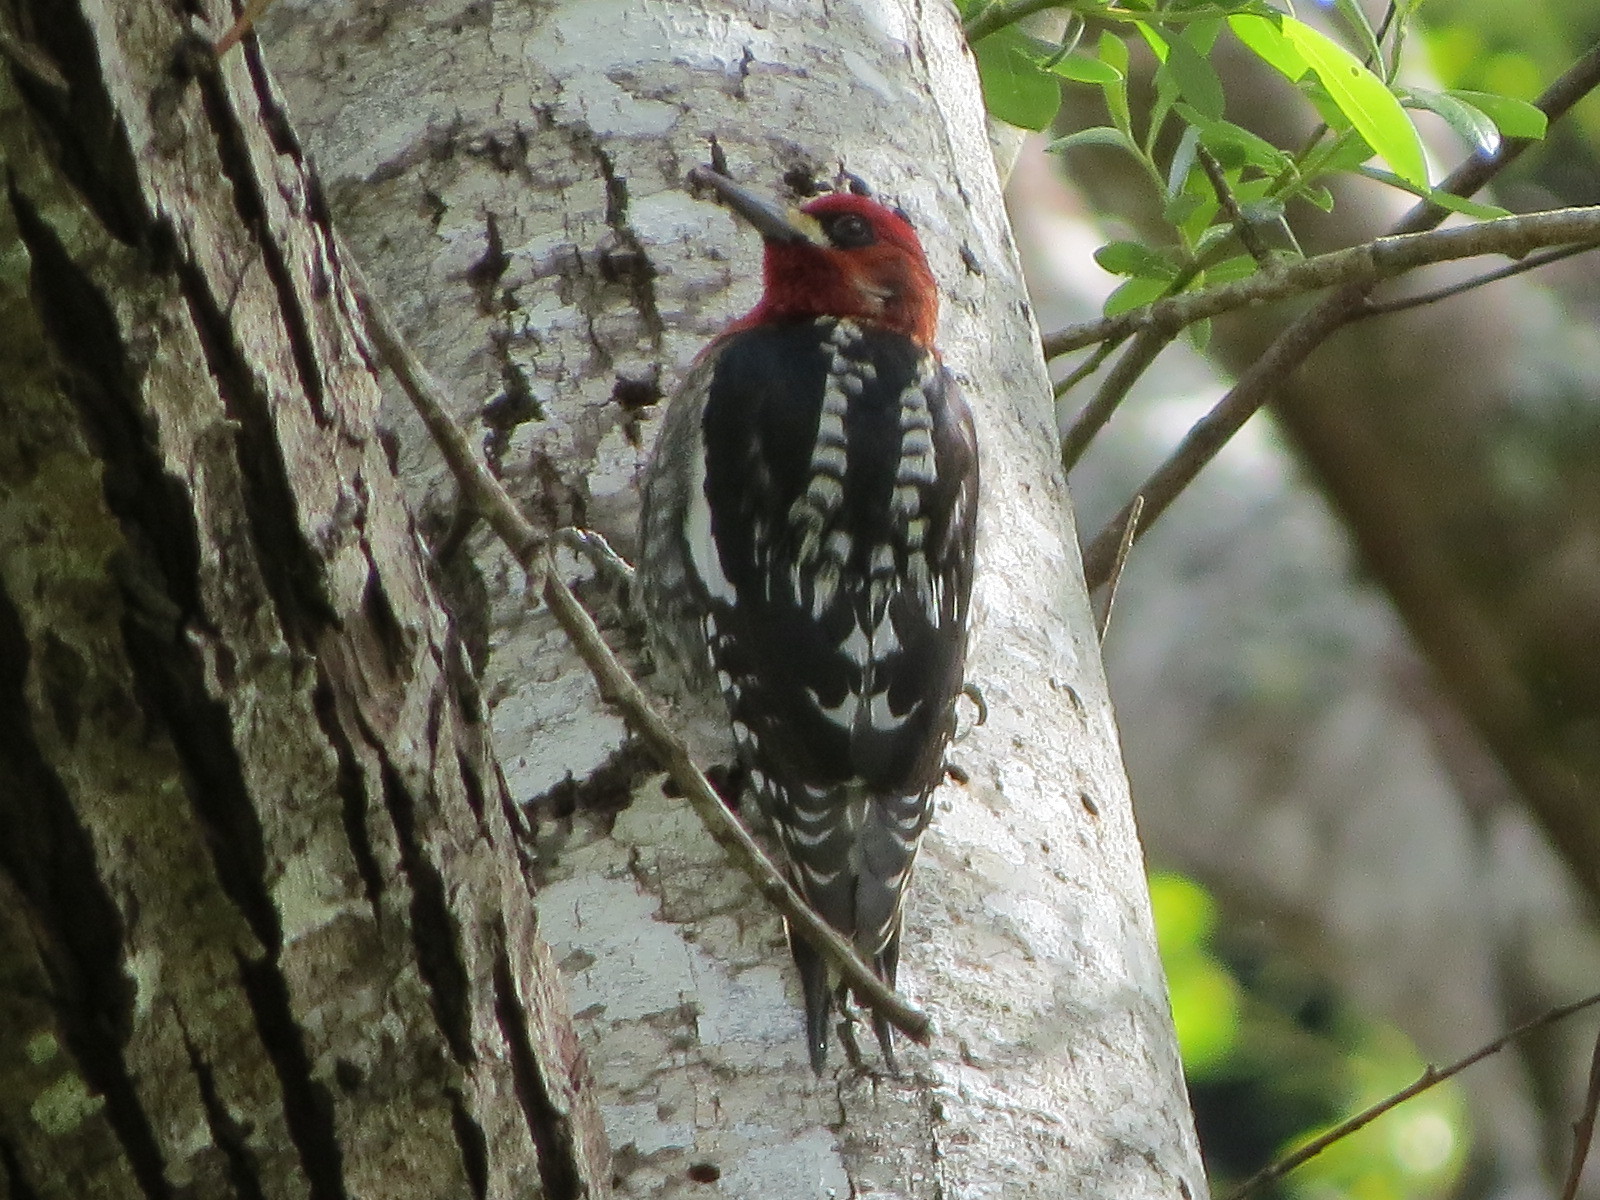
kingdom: Animalia
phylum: Chordata
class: Aves
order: Piciformes
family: Picidae
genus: Sphyrapicus
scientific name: Sphyrapicus ruber
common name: Red-breasted sapsucker
